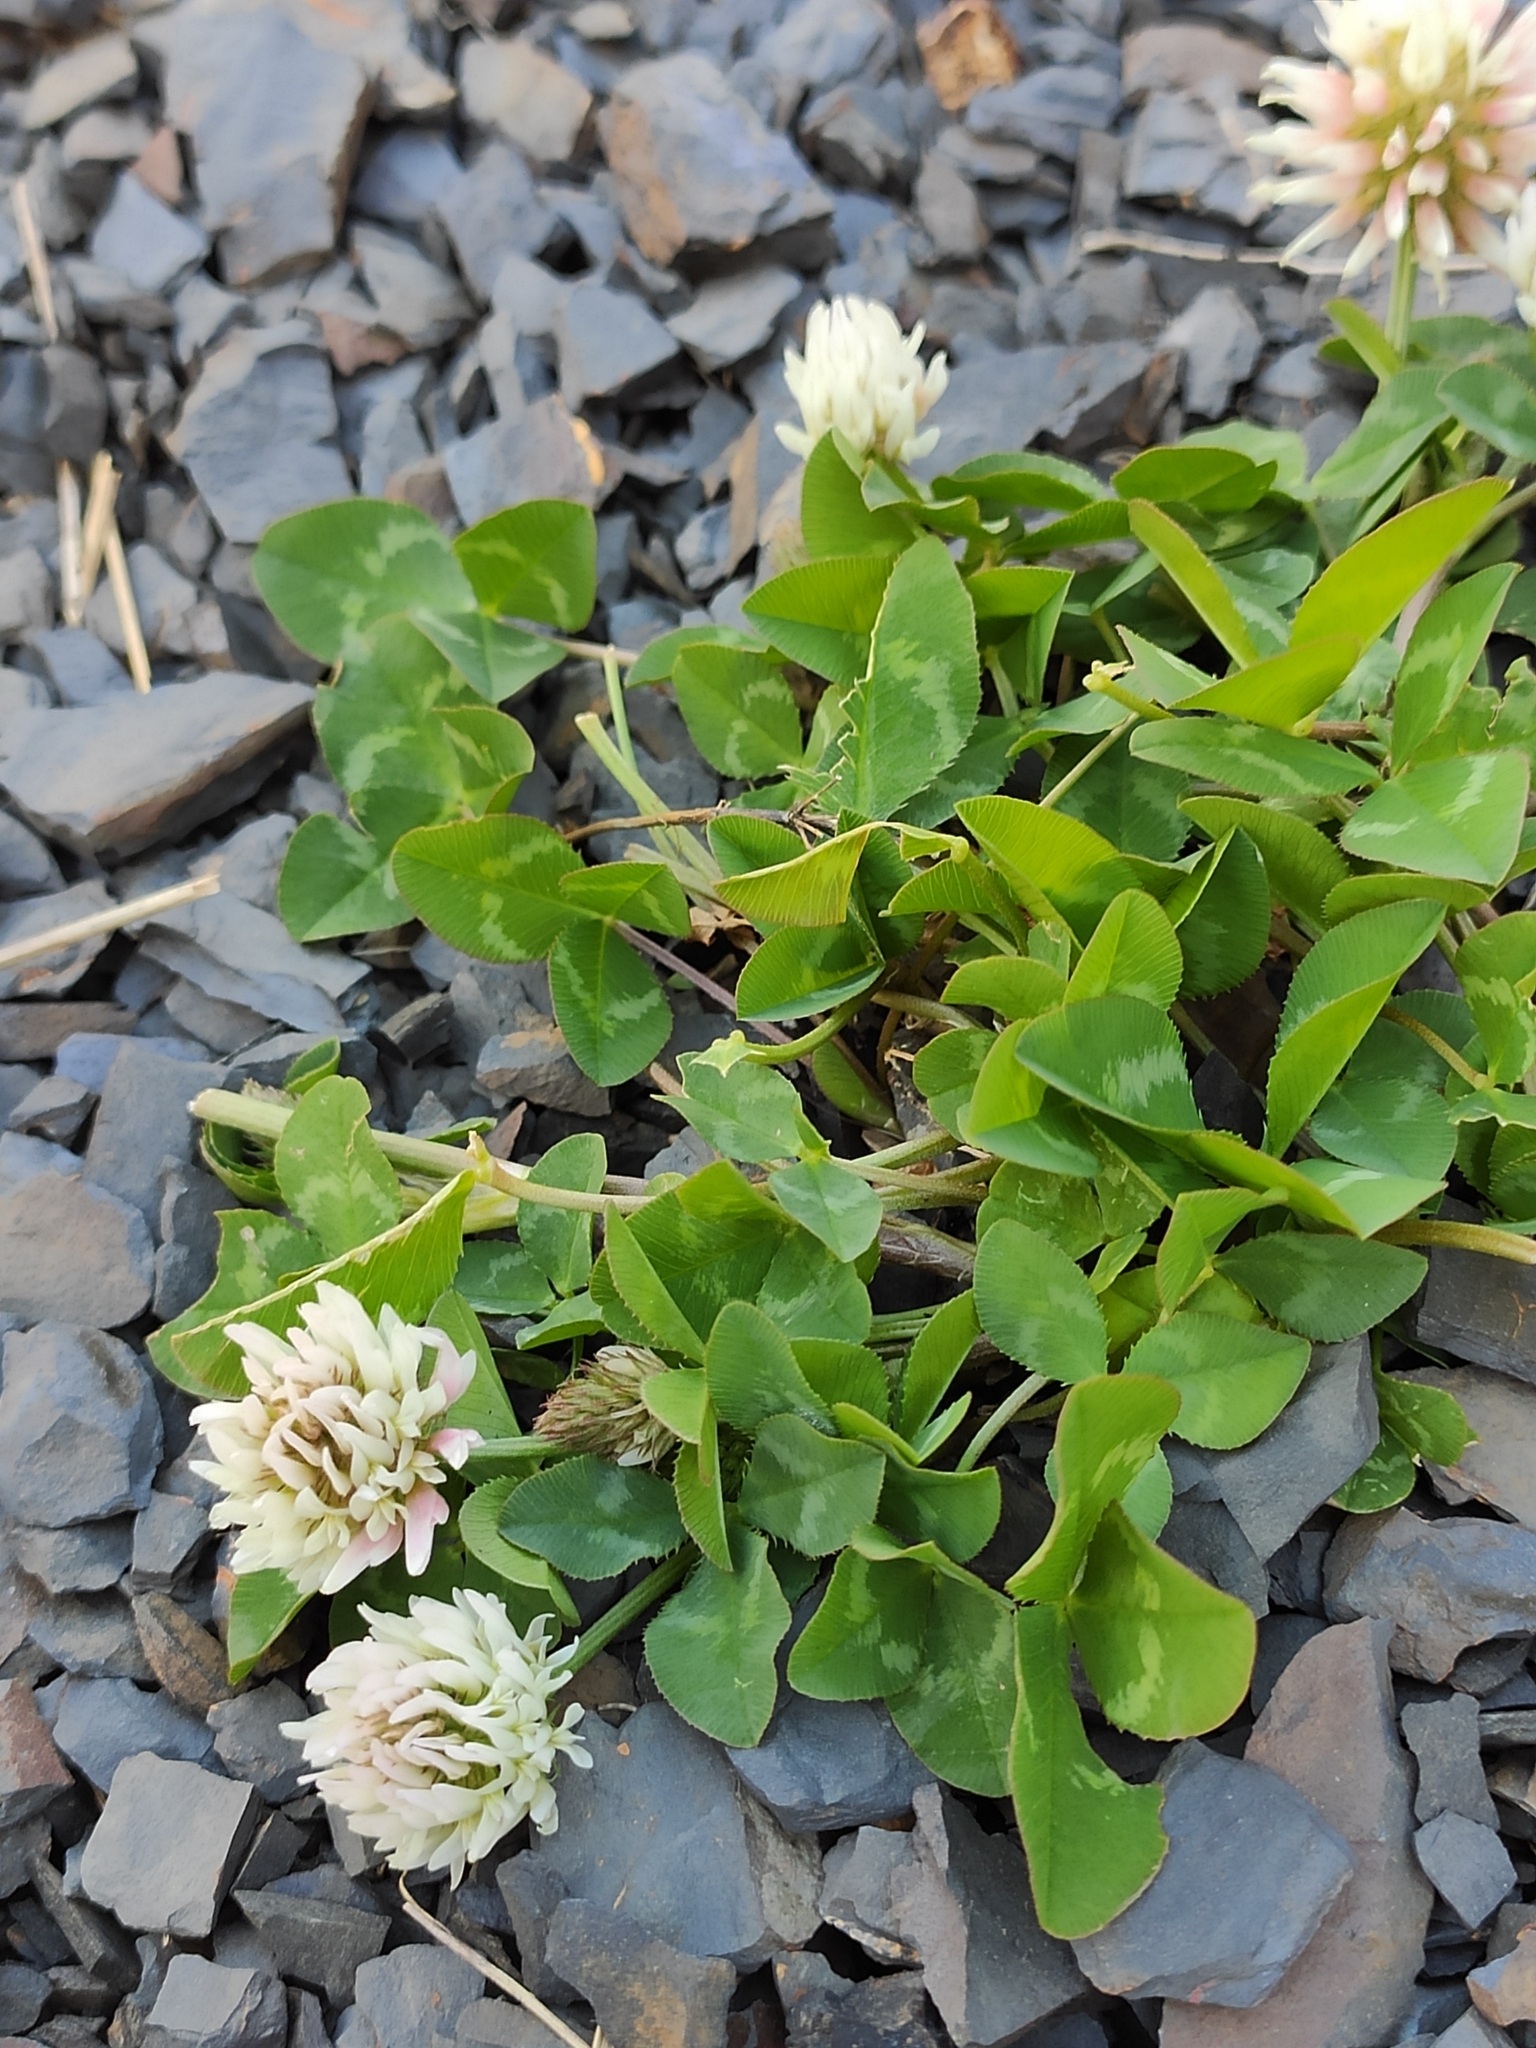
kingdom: Plantae
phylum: Tracheophyta
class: Magnoliopsida
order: Fabales
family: Fabaceae
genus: Trifolium
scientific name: Trifolium ambiguum
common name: Kura clover
